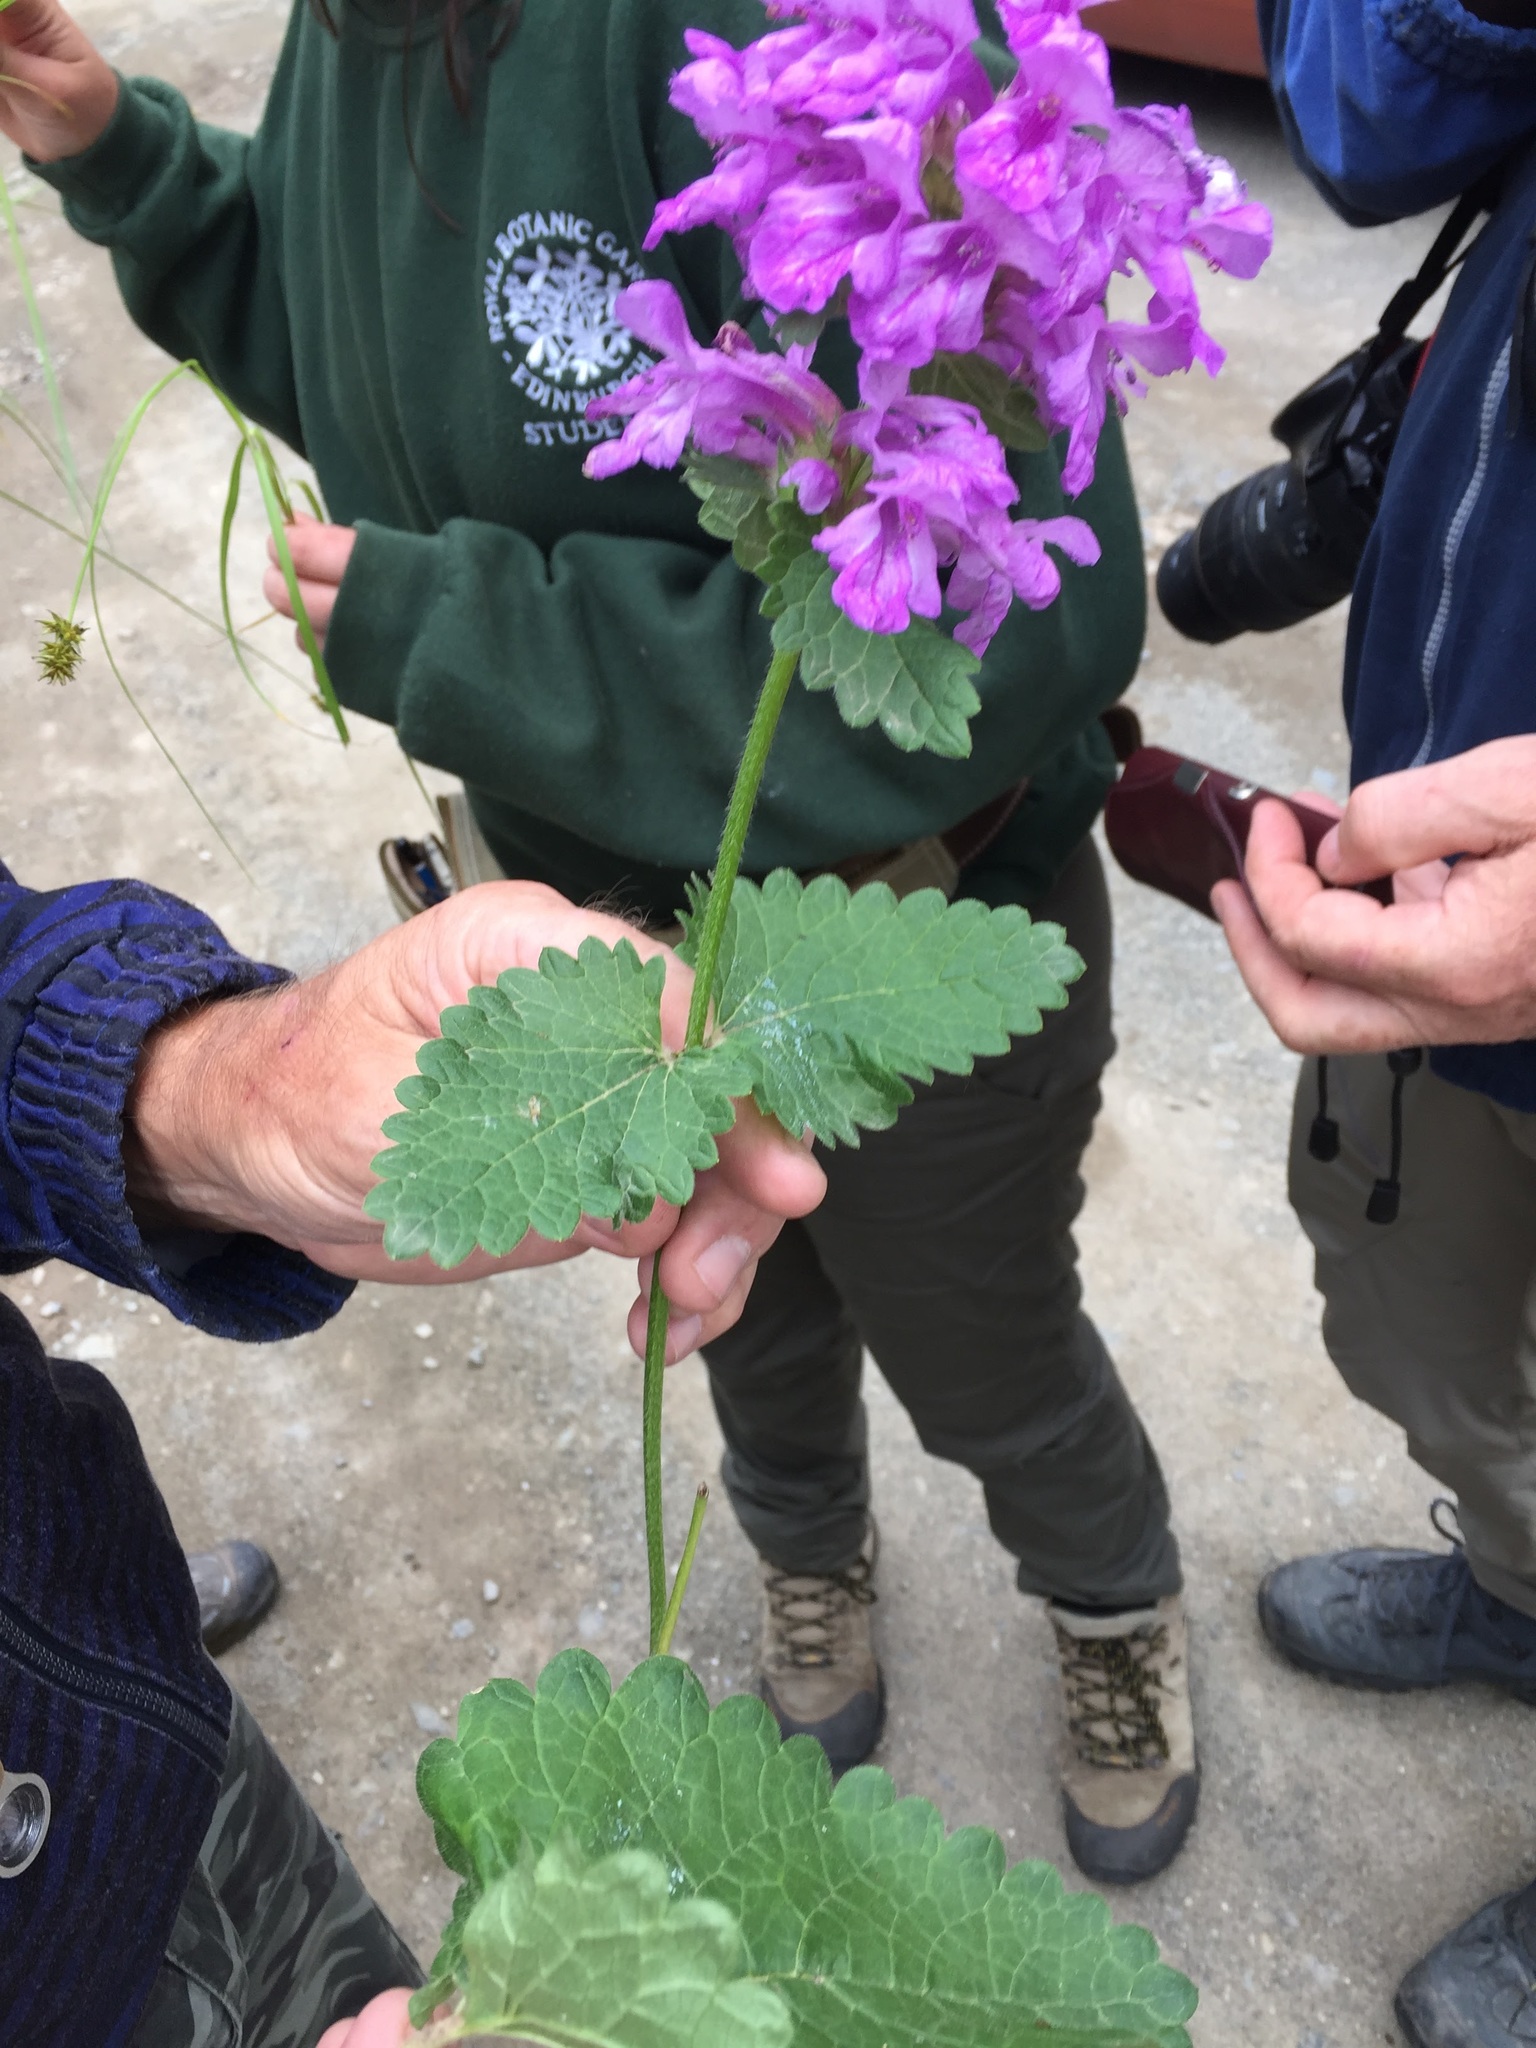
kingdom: Plantae
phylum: Tracheophyta
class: Magnoliopsida
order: Lamiales
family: Lamiaceae
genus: Betonica
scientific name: Betonica macrantha
